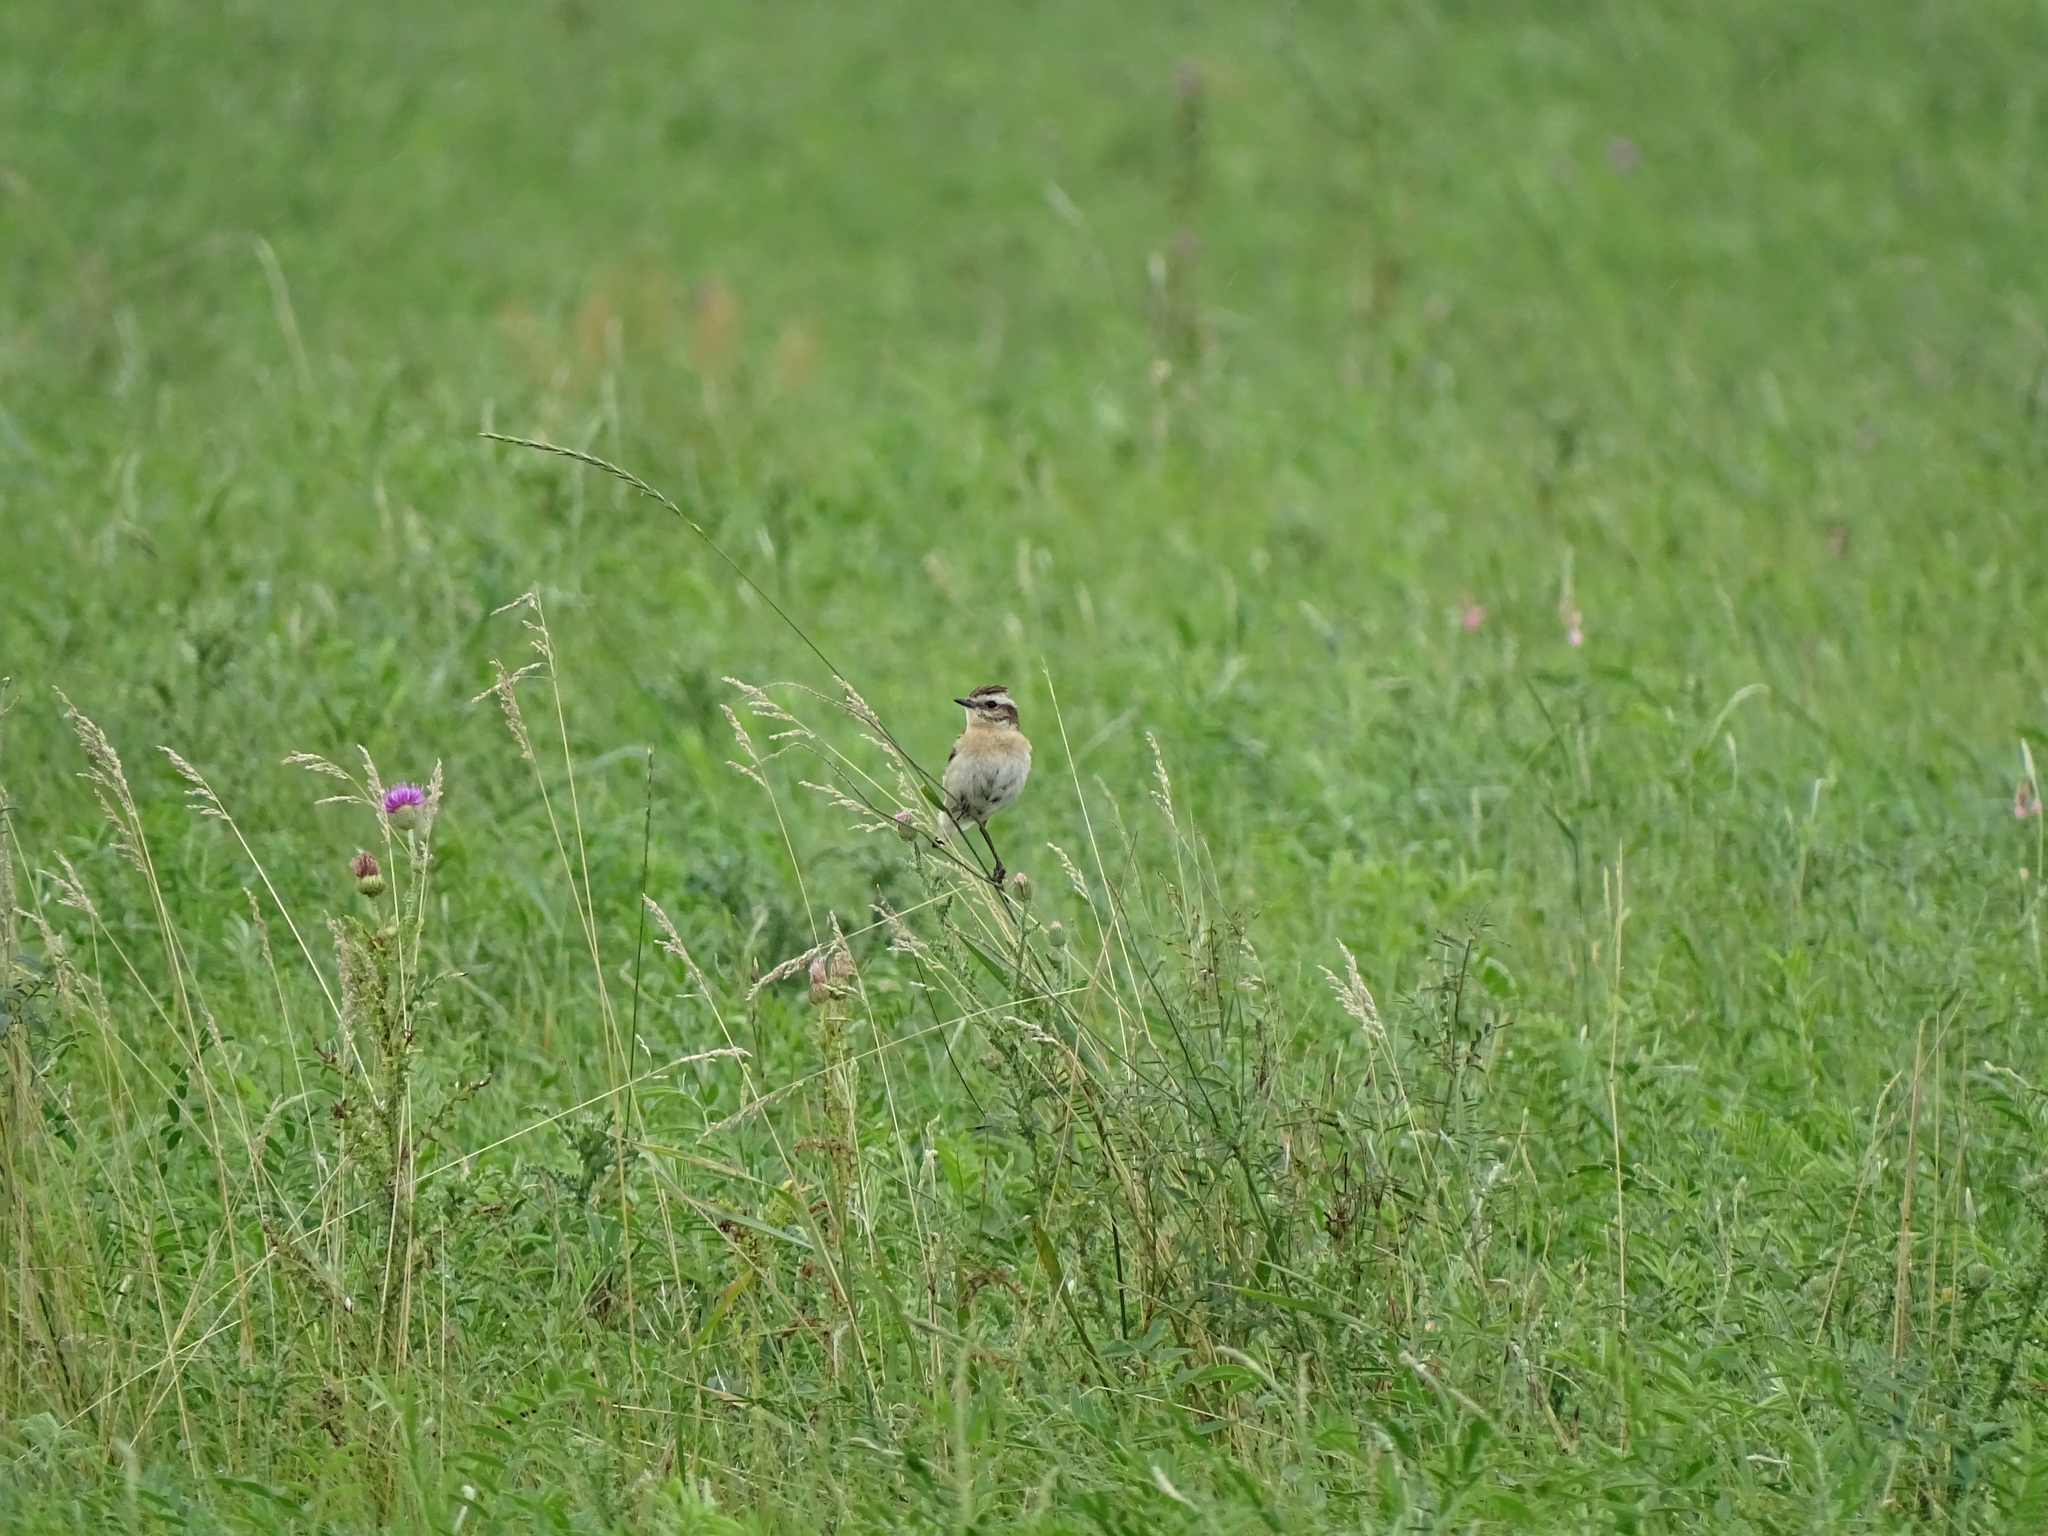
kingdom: Animalia
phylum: Chordata
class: Aves
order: Passeriformes
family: Muscicapidae
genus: Saxicola
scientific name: Saxicola rubetra
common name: Whinchat
